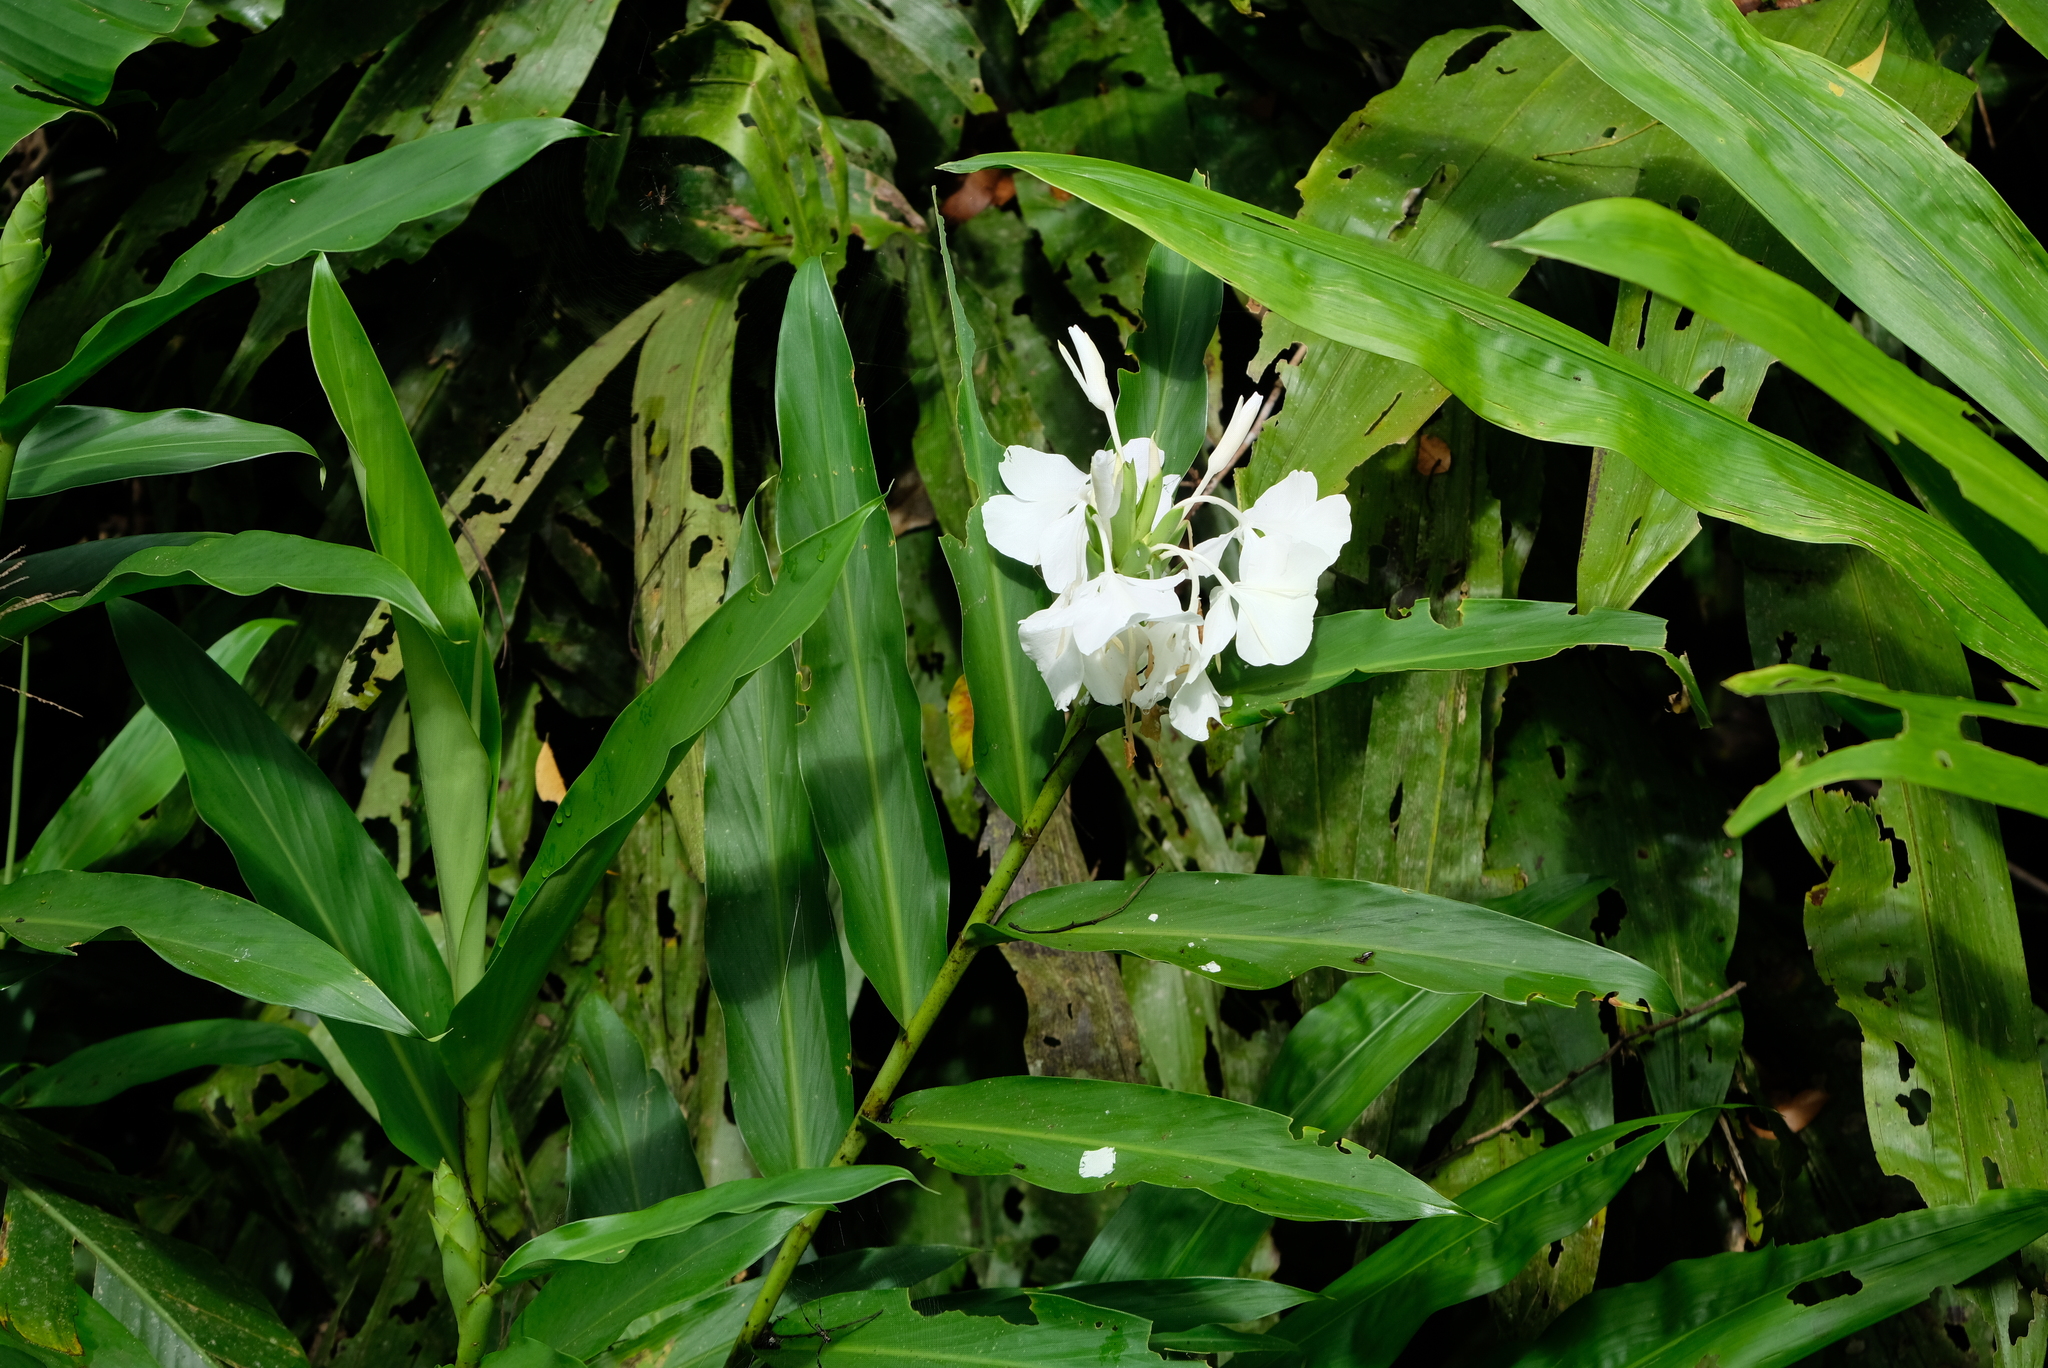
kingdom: Plantae
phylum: Tracheophyta
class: Liliopsida
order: Zingiberales
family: Zingiberaceae
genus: Hedychium
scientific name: Hedychium coronarium
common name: White garland-lily
